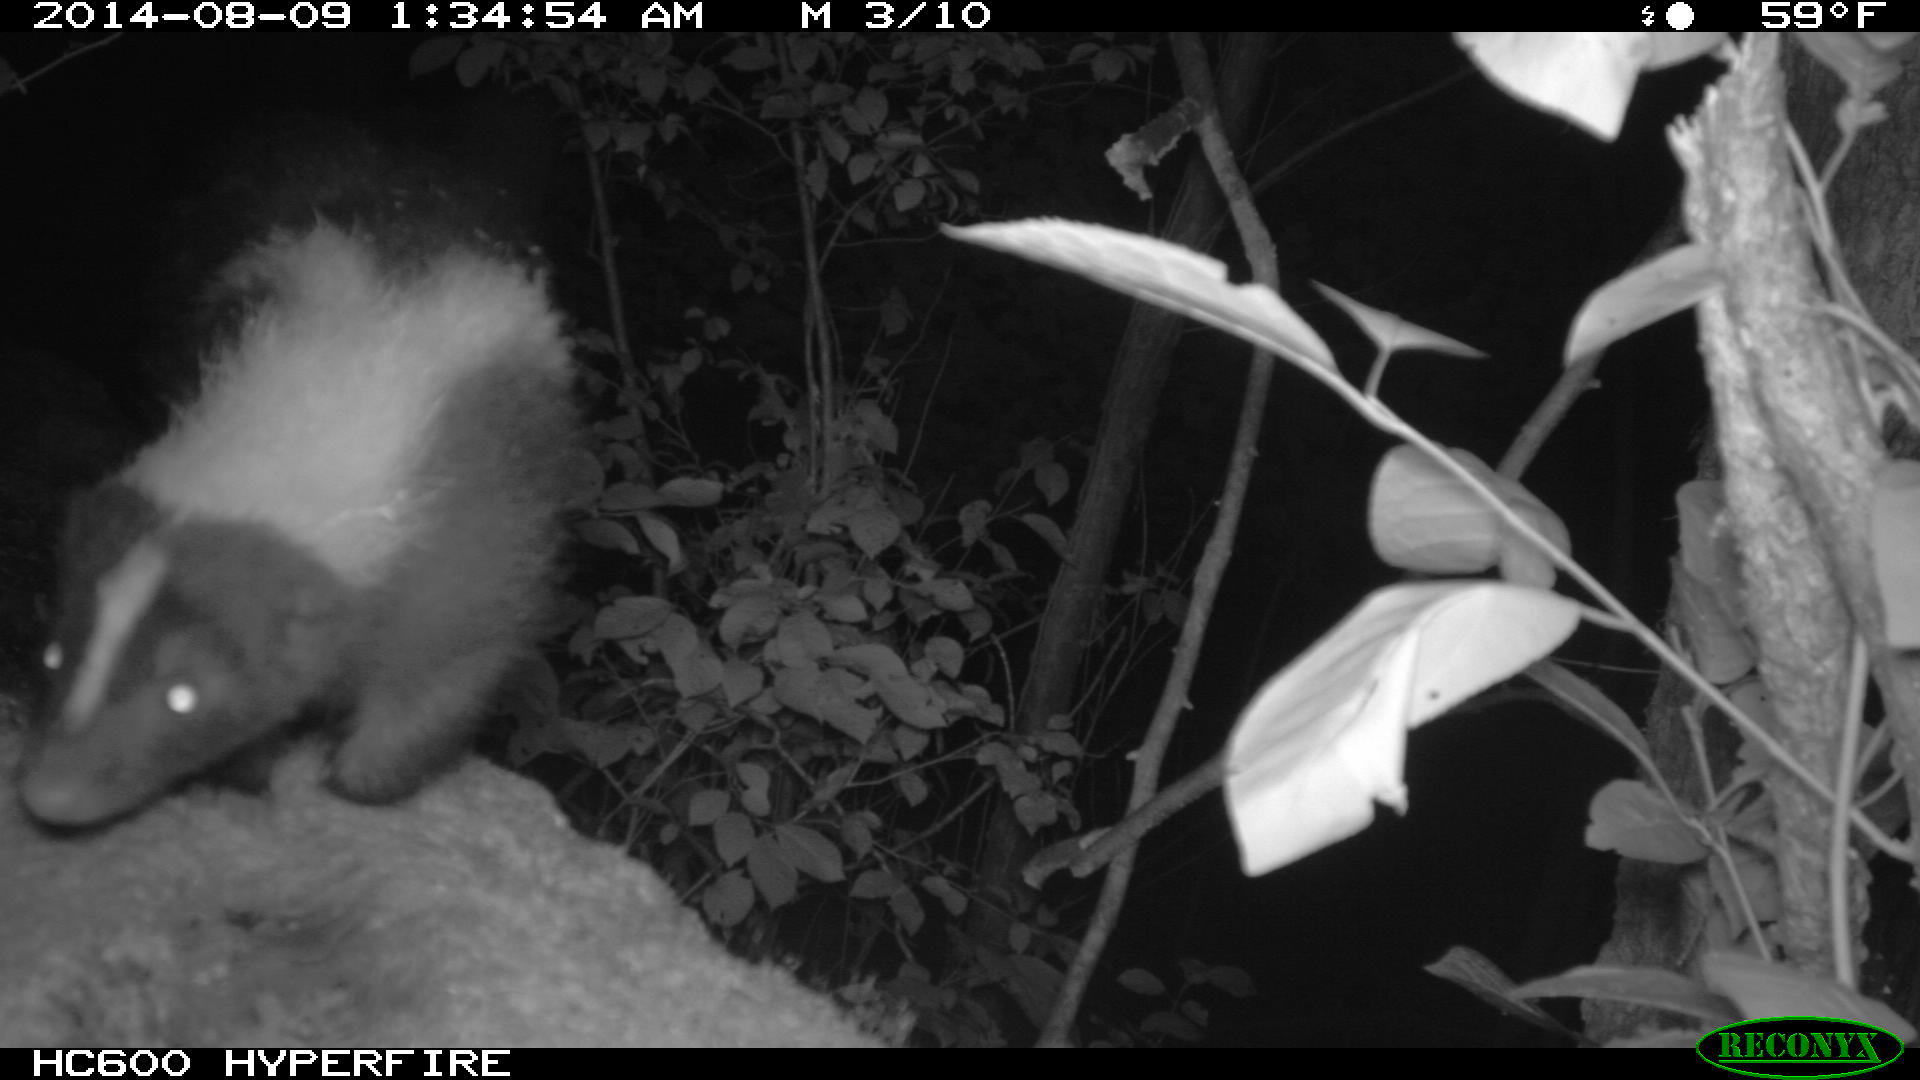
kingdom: Animalia
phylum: Chordata
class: Mammalia
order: Carnivora
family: Mephitidae
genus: Mephitis
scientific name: Mephitis mephitis
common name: Striped skunk
